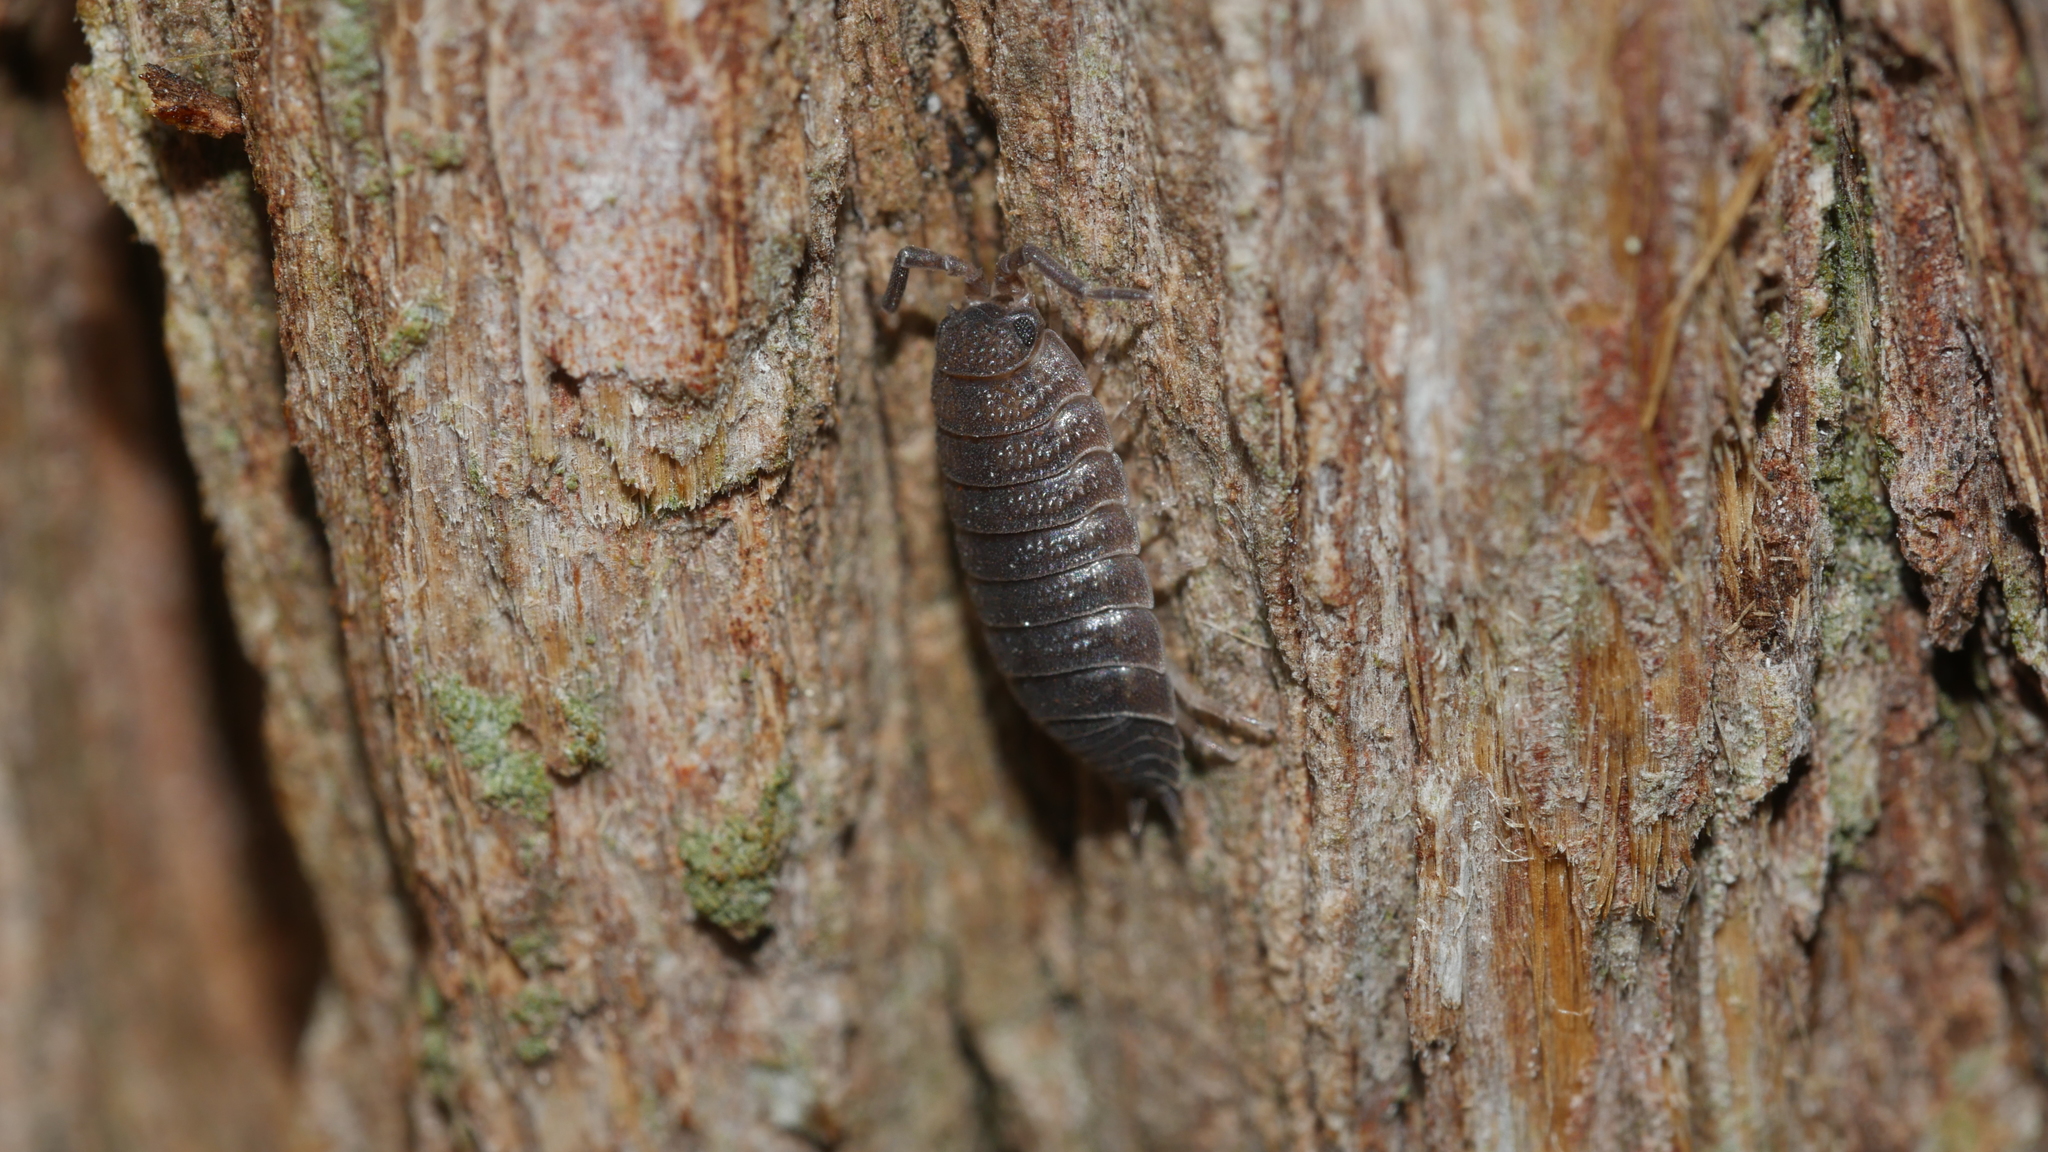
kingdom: Animalia
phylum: Arthropoda
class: Malacostraca
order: Isopoda
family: Porcellionidae
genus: Porcellio
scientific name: Porcellio scaber
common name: Common rough woodlouse
